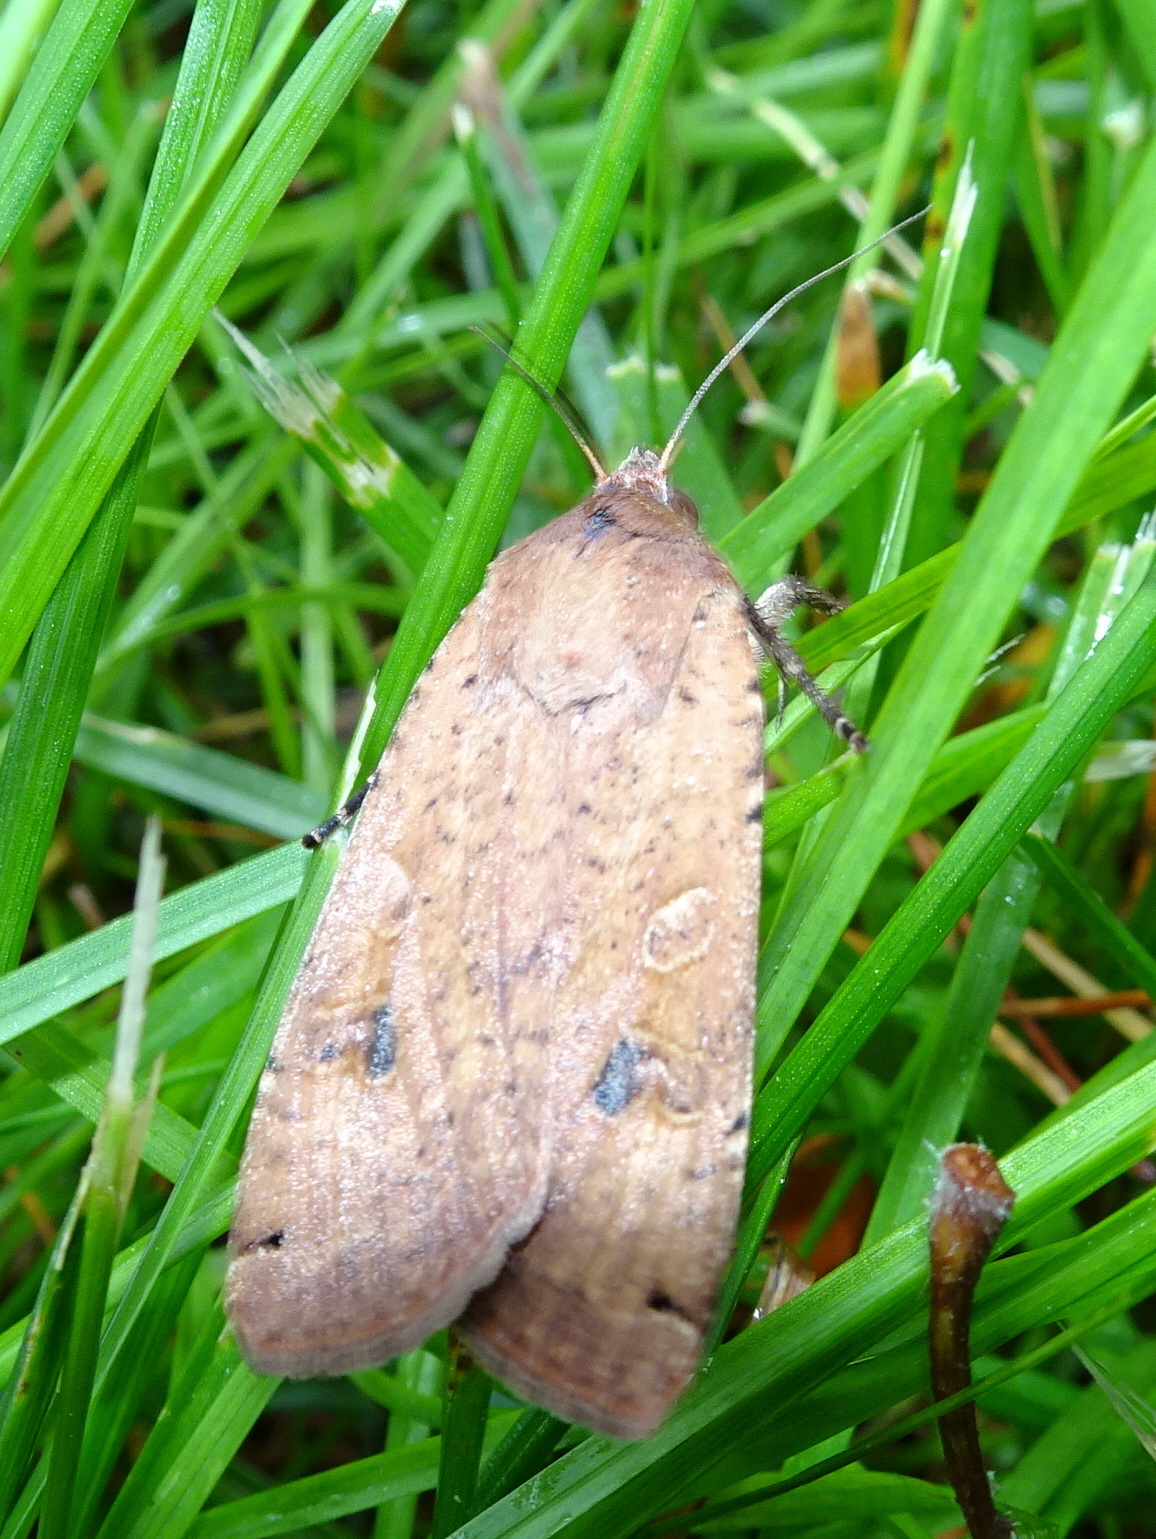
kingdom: Animalia
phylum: Arthropoda
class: Insecta
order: Lepidoptera
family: Noctuidae
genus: Noctua
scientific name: Noctua pronuba
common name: Large yellow underwing
